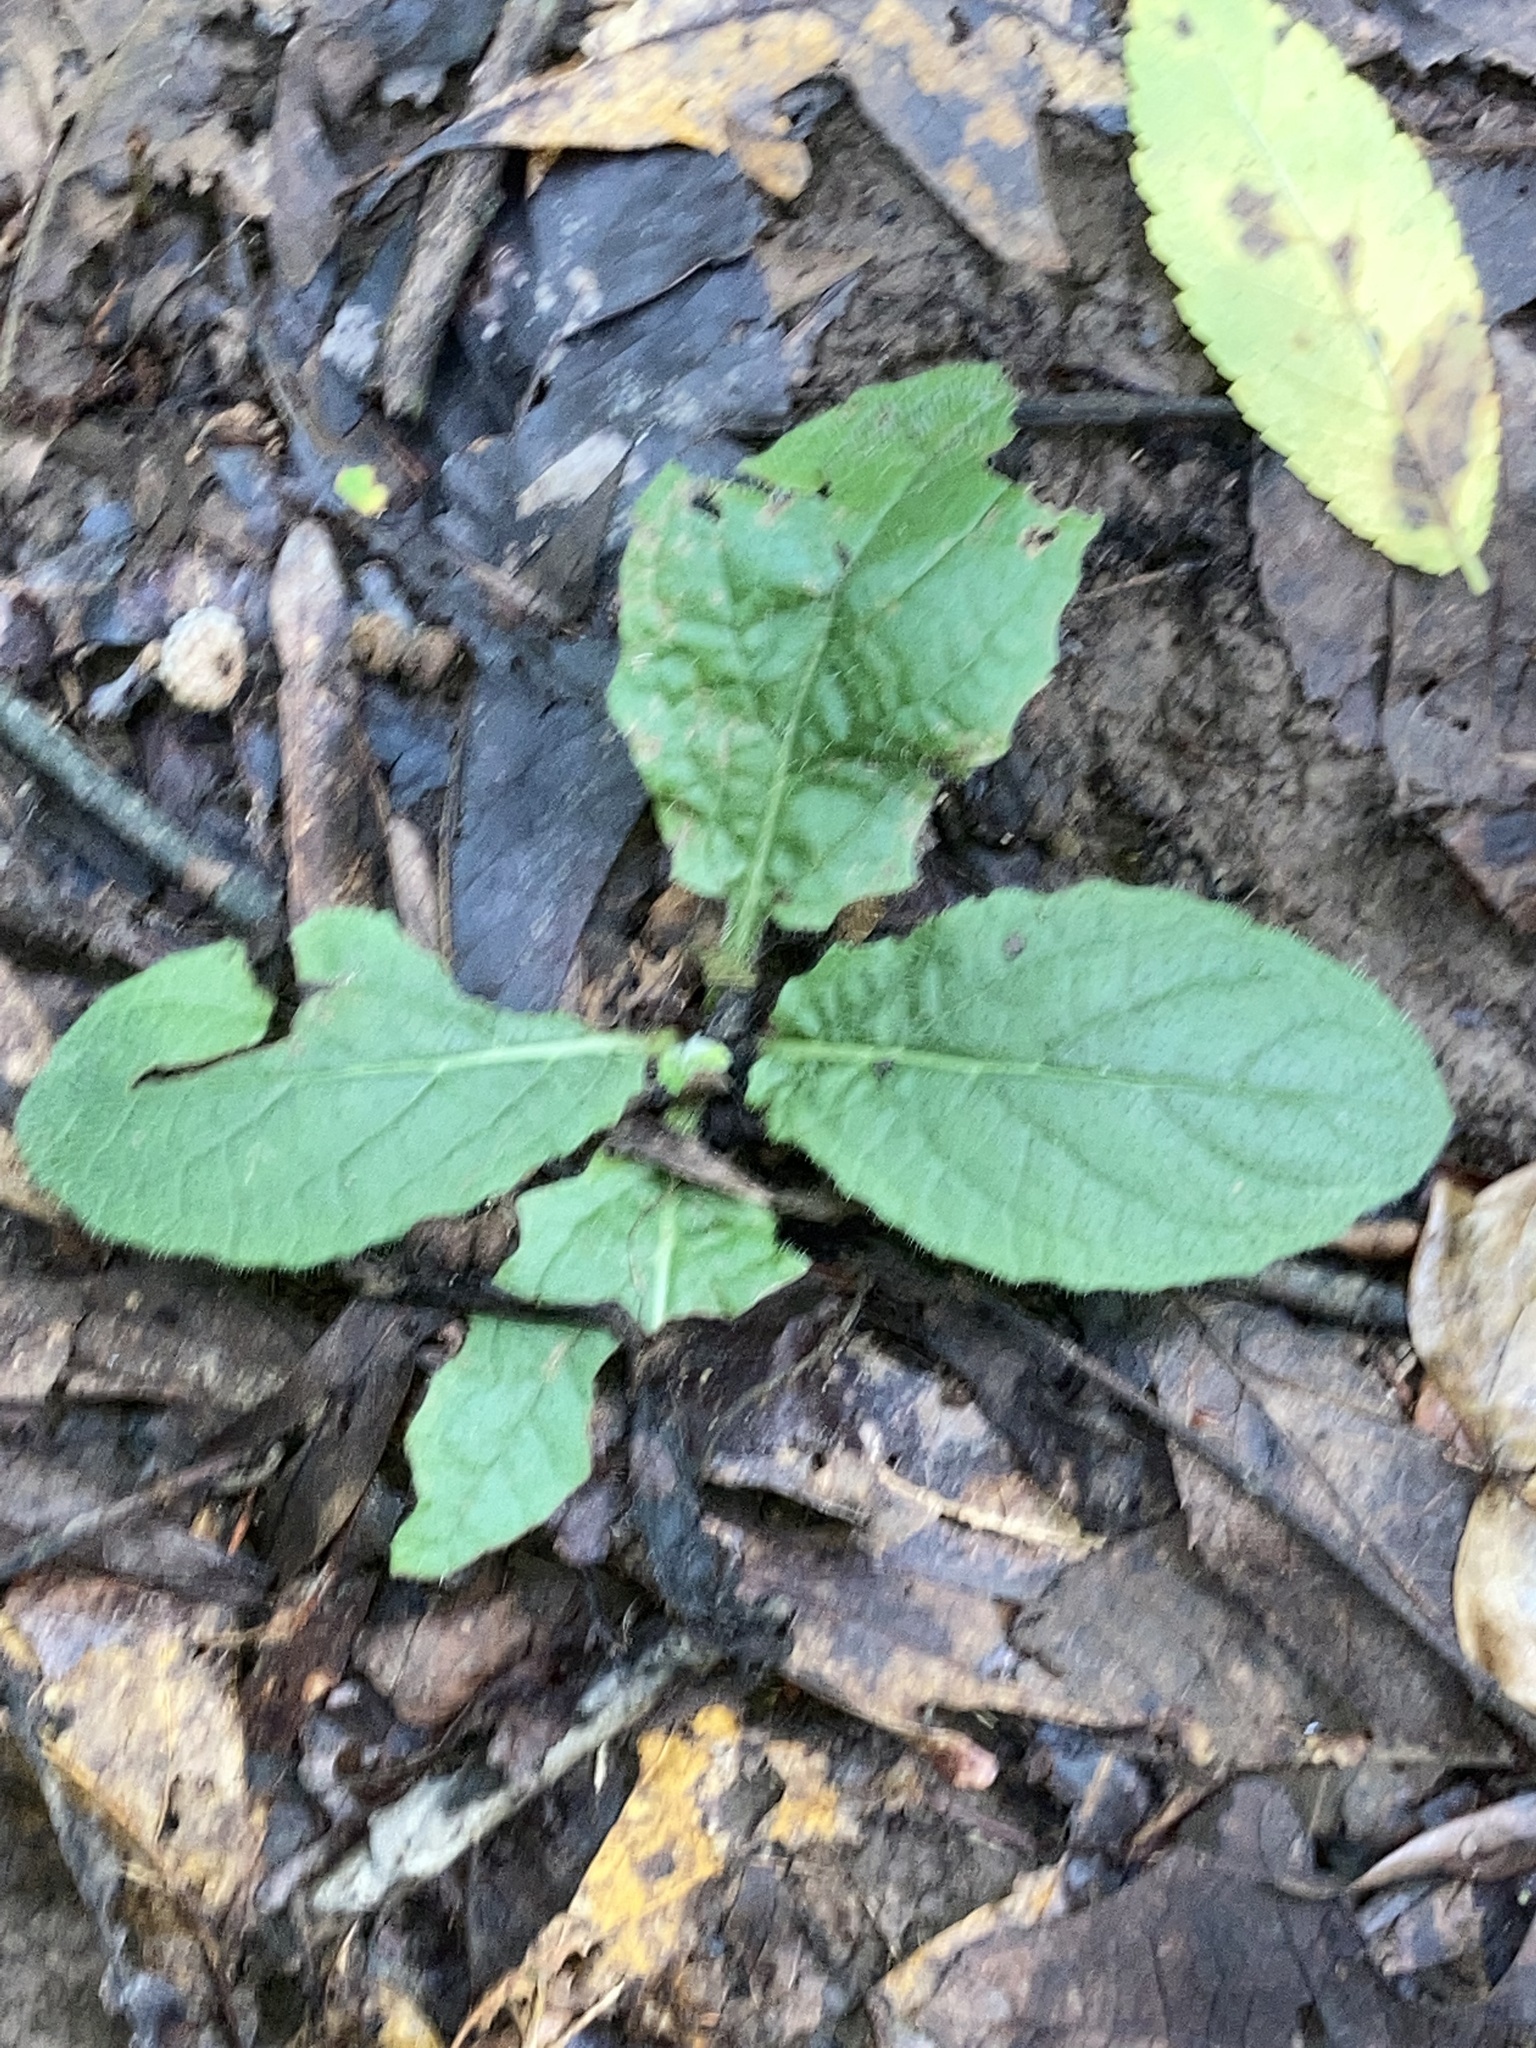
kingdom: Plantae
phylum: Tracheophyta
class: Magnoliopsida
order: Lamiales
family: Lamiaceae
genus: Salvia
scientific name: Salvia lyrata
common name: Cancerweed
